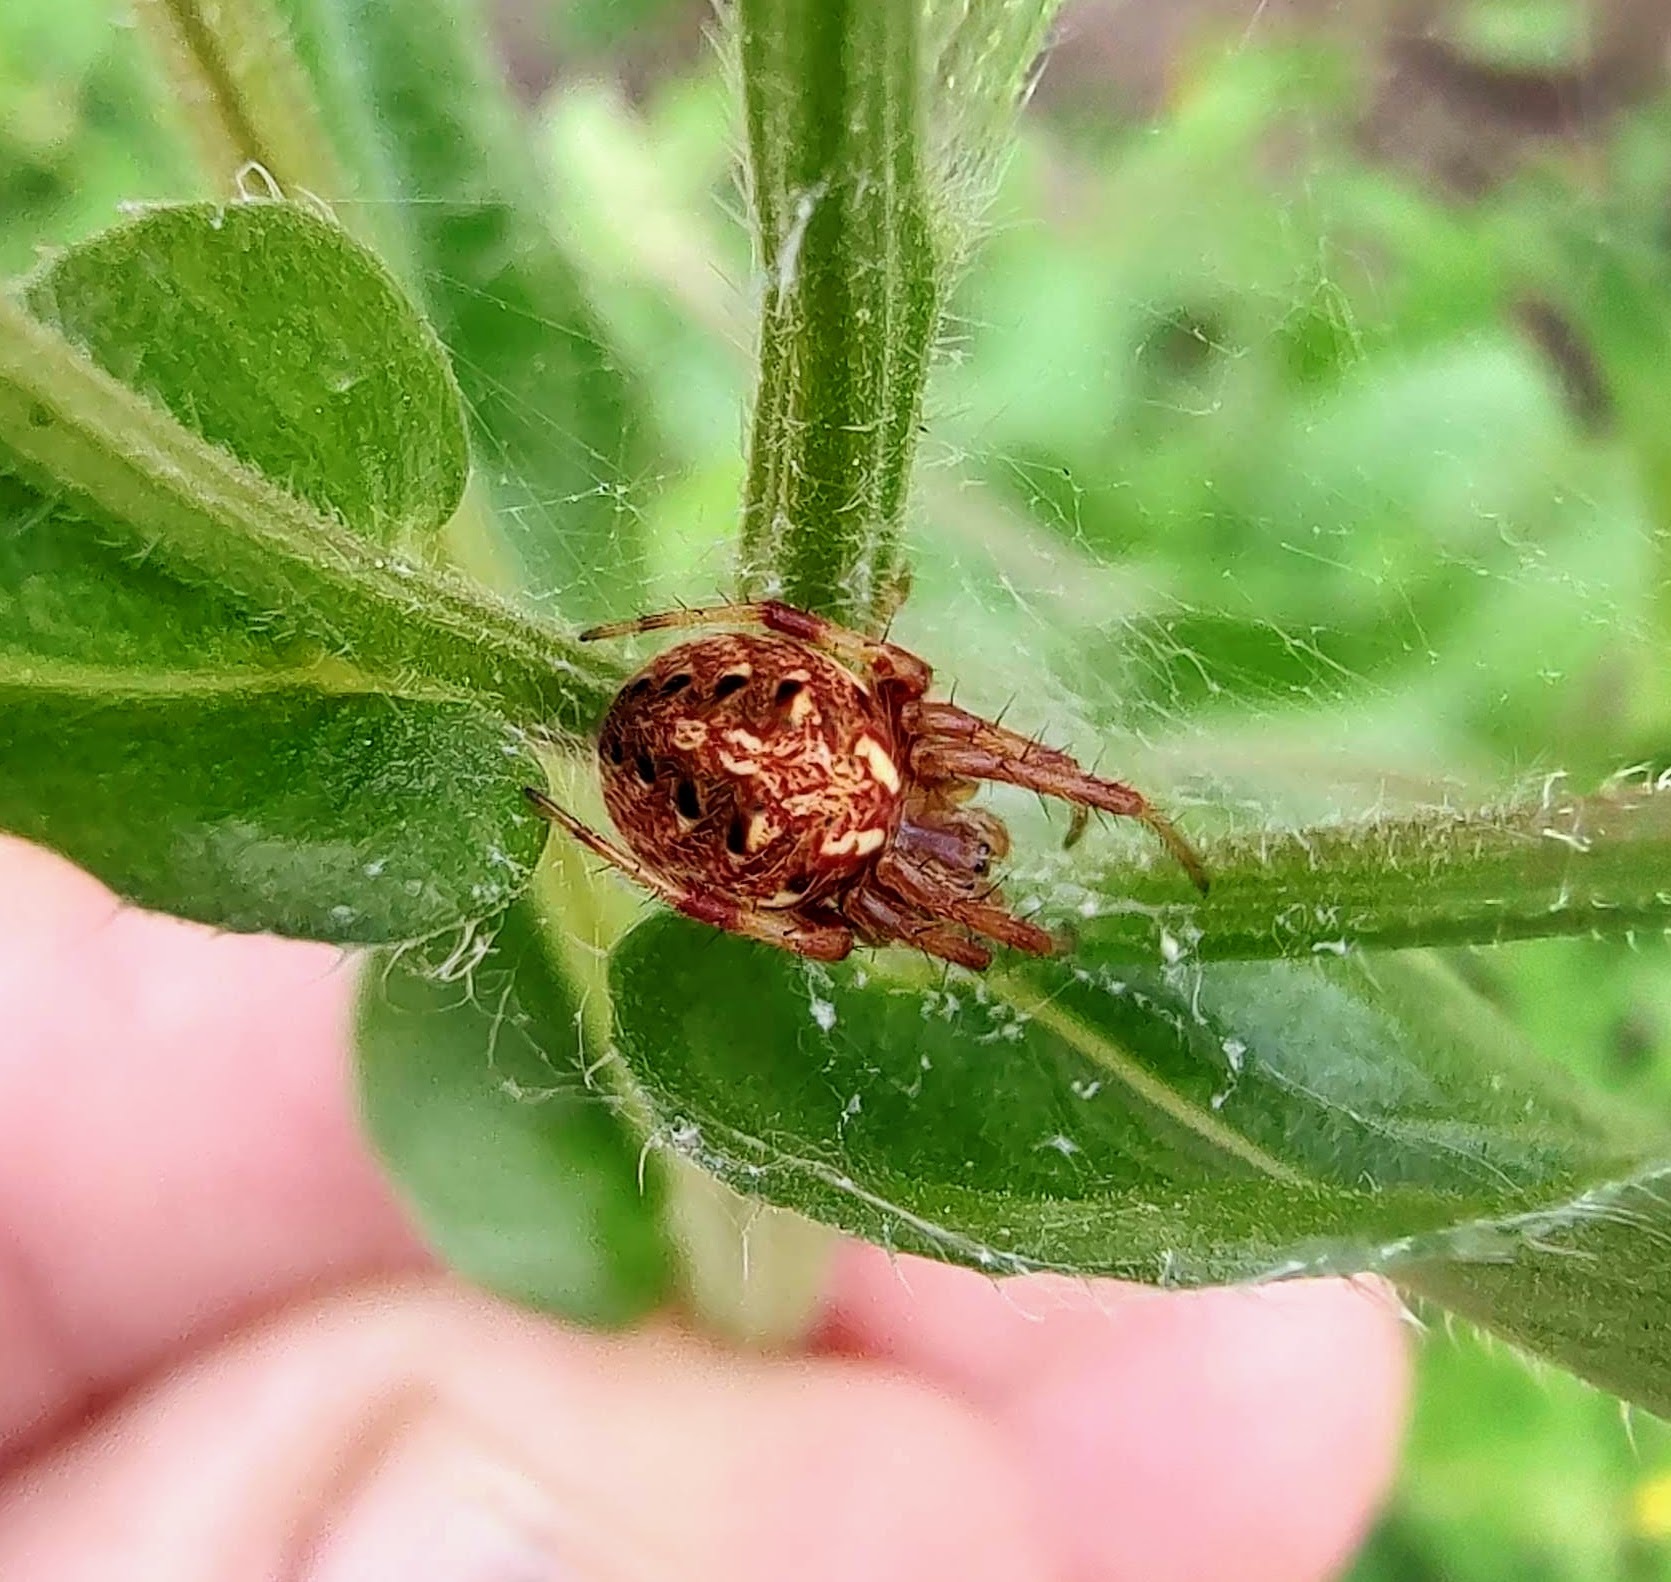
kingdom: Animalia
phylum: Arthropoda
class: Arachnida
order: Araneae
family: Araneidae
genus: Neoscona
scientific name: Neoscona arabesca
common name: Orb weavers
